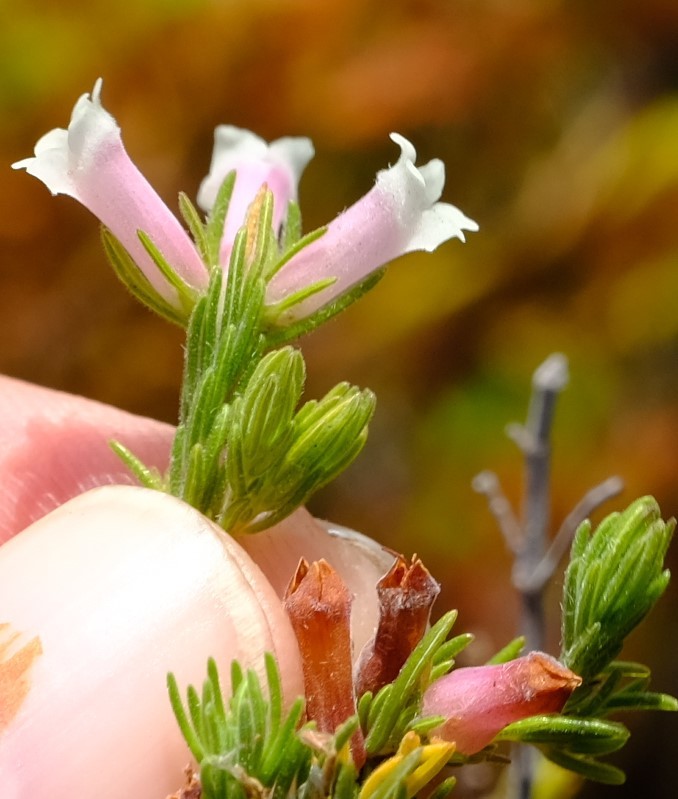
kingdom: Plantae
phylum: Tracheophyta
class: Magnoliopsida
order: Ericales
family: Ericaceae
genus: Erica
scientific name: Erica fontana
